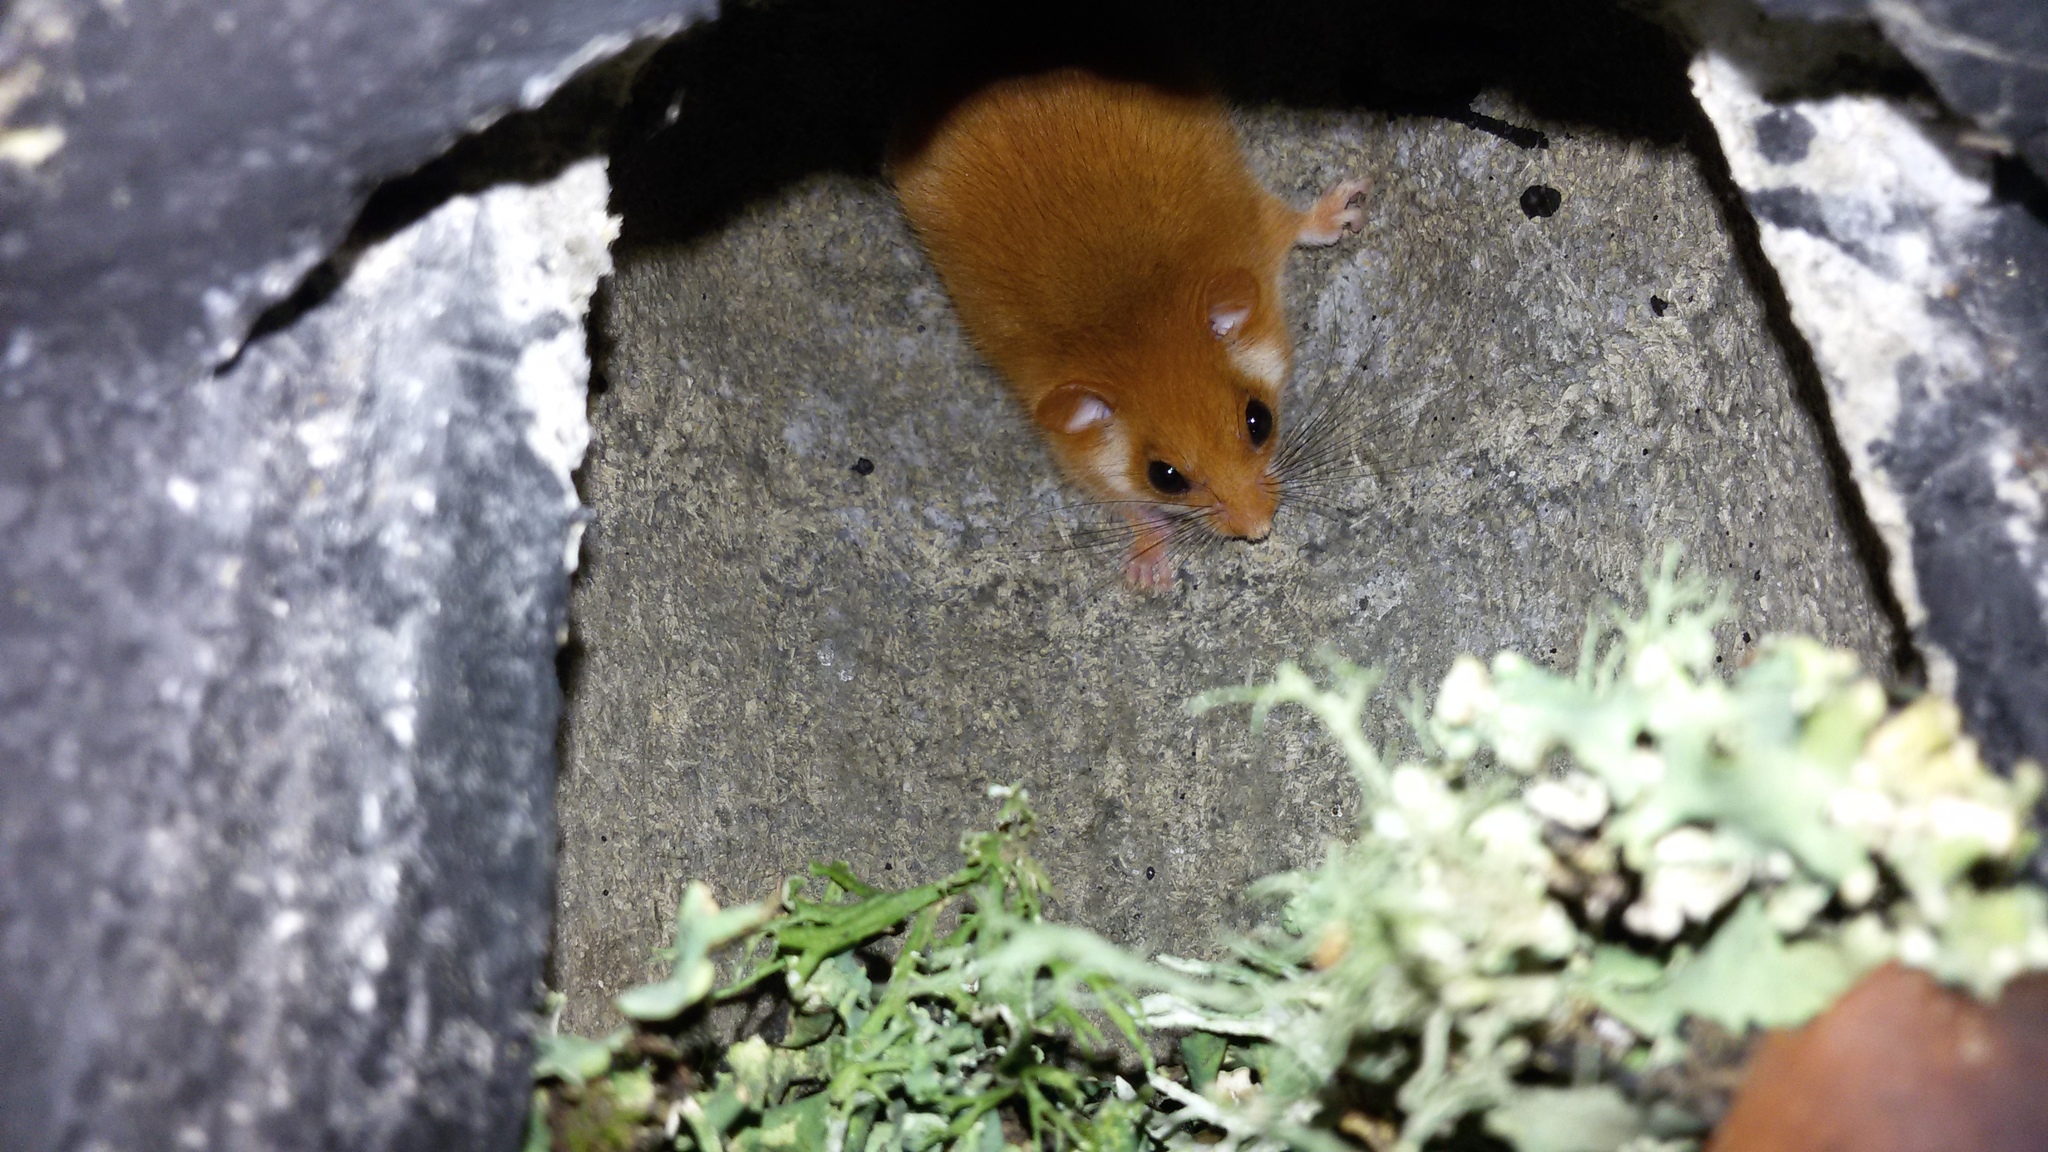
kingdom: Animalia
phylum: Chordata
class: Mammalia
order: Rodentia
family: Gliridae
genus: Muscardinus
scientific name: Muscardinus avellanarius
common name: Hazel dormouse
